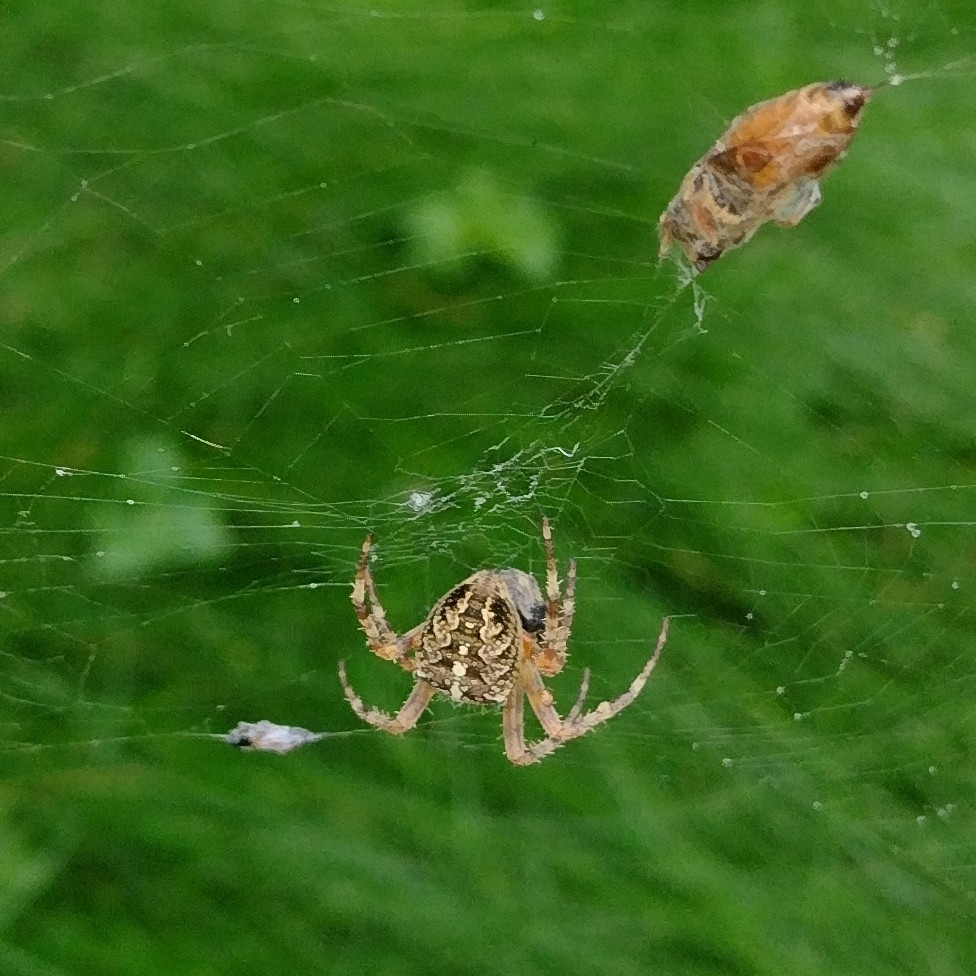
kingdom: Animalia
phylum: Arthropoda
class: Arachnida
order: Araneae
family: Araneidae
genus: Araneus
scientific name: Araneus diadematus
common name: Cross orbweaver
